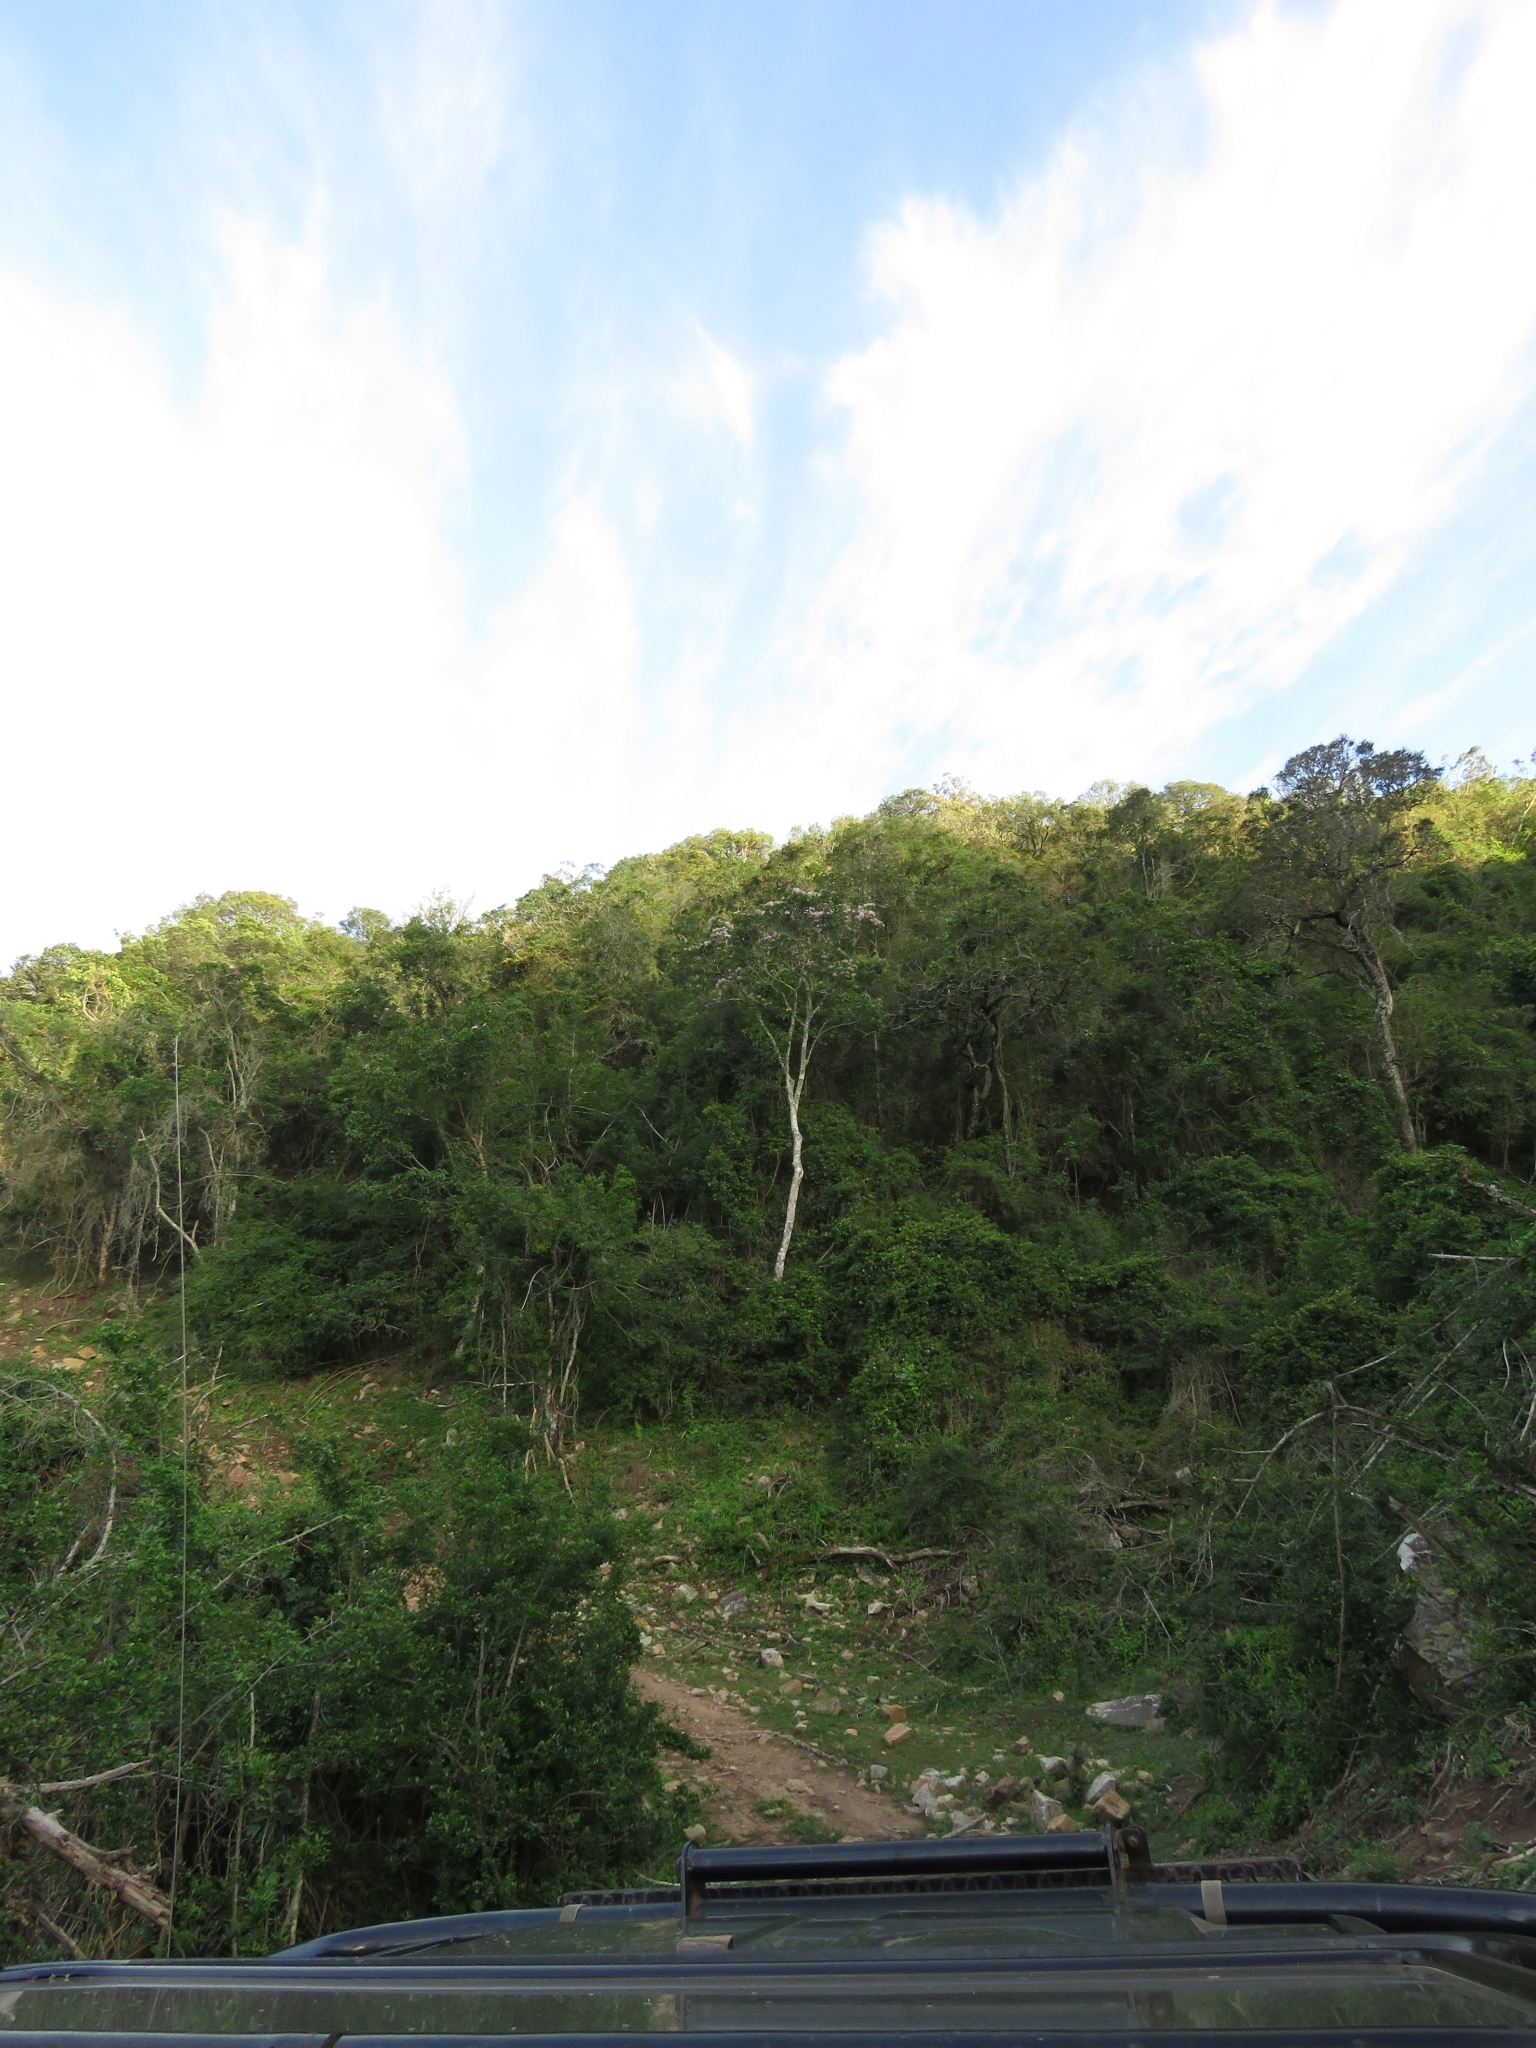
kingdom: Plantae
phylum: Tracheophyta
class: Magnoliopsida
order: Sapindales
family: Rutaceae
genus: Calodendrum
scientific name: Calodendrum capense
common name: Cape chestnut
